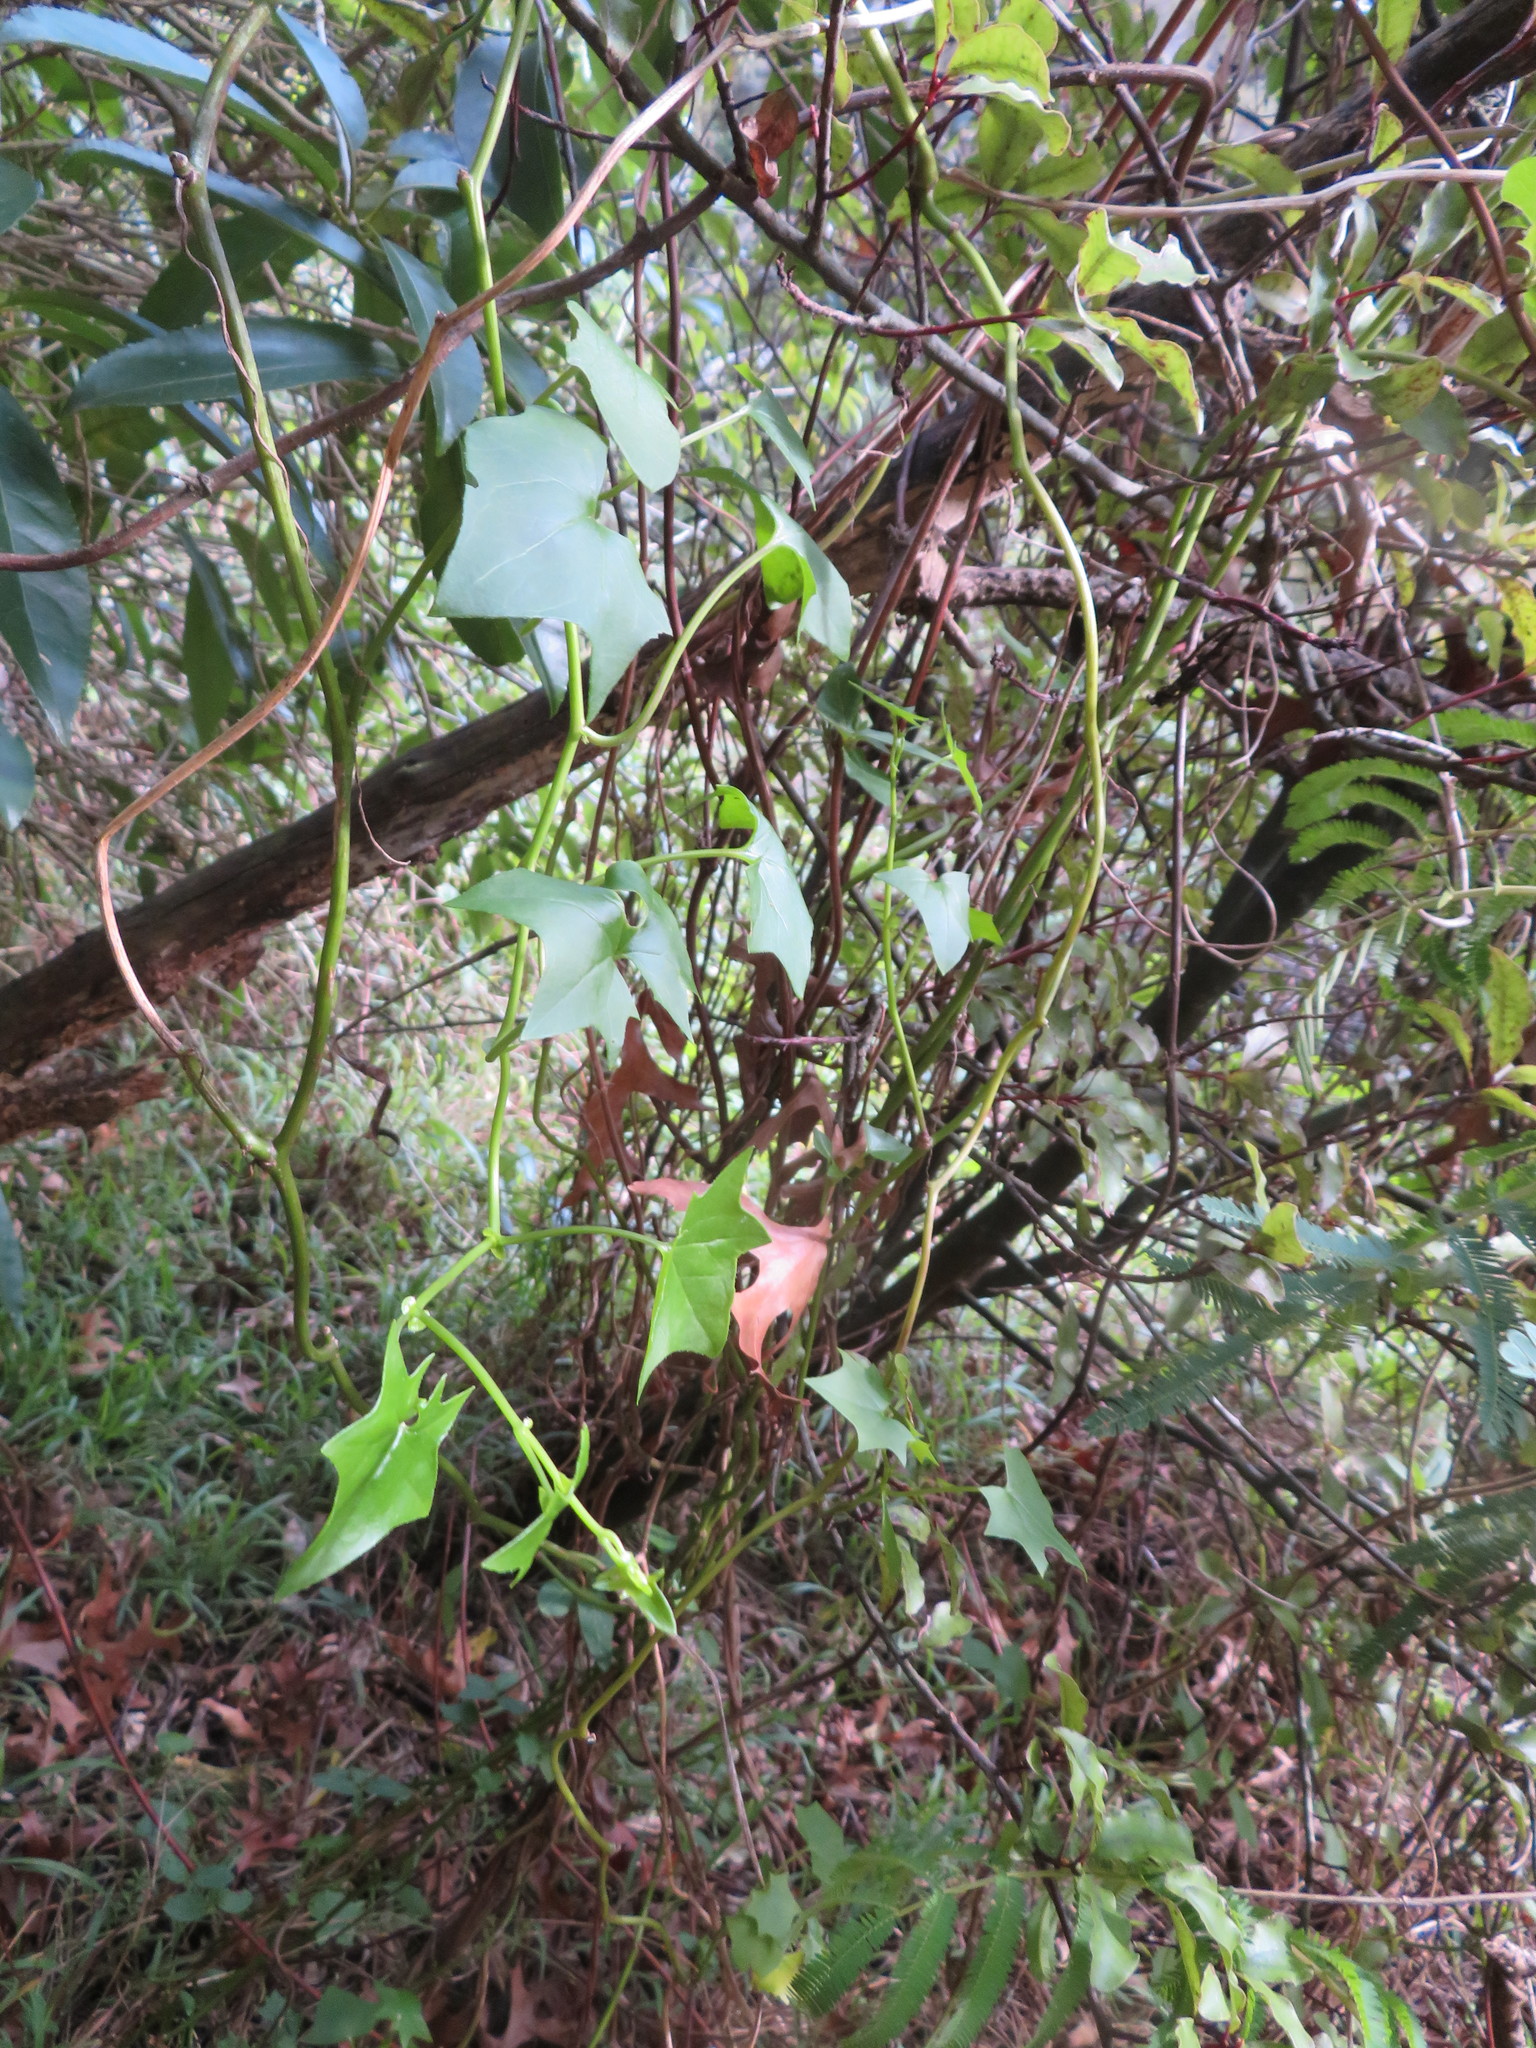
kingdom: Plantae
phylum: Tracheophyta
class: Magnoliopsida
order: Asterales
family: Asteraceae
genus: Delairea
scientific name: Delairea odorata
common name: Cape-ivy
